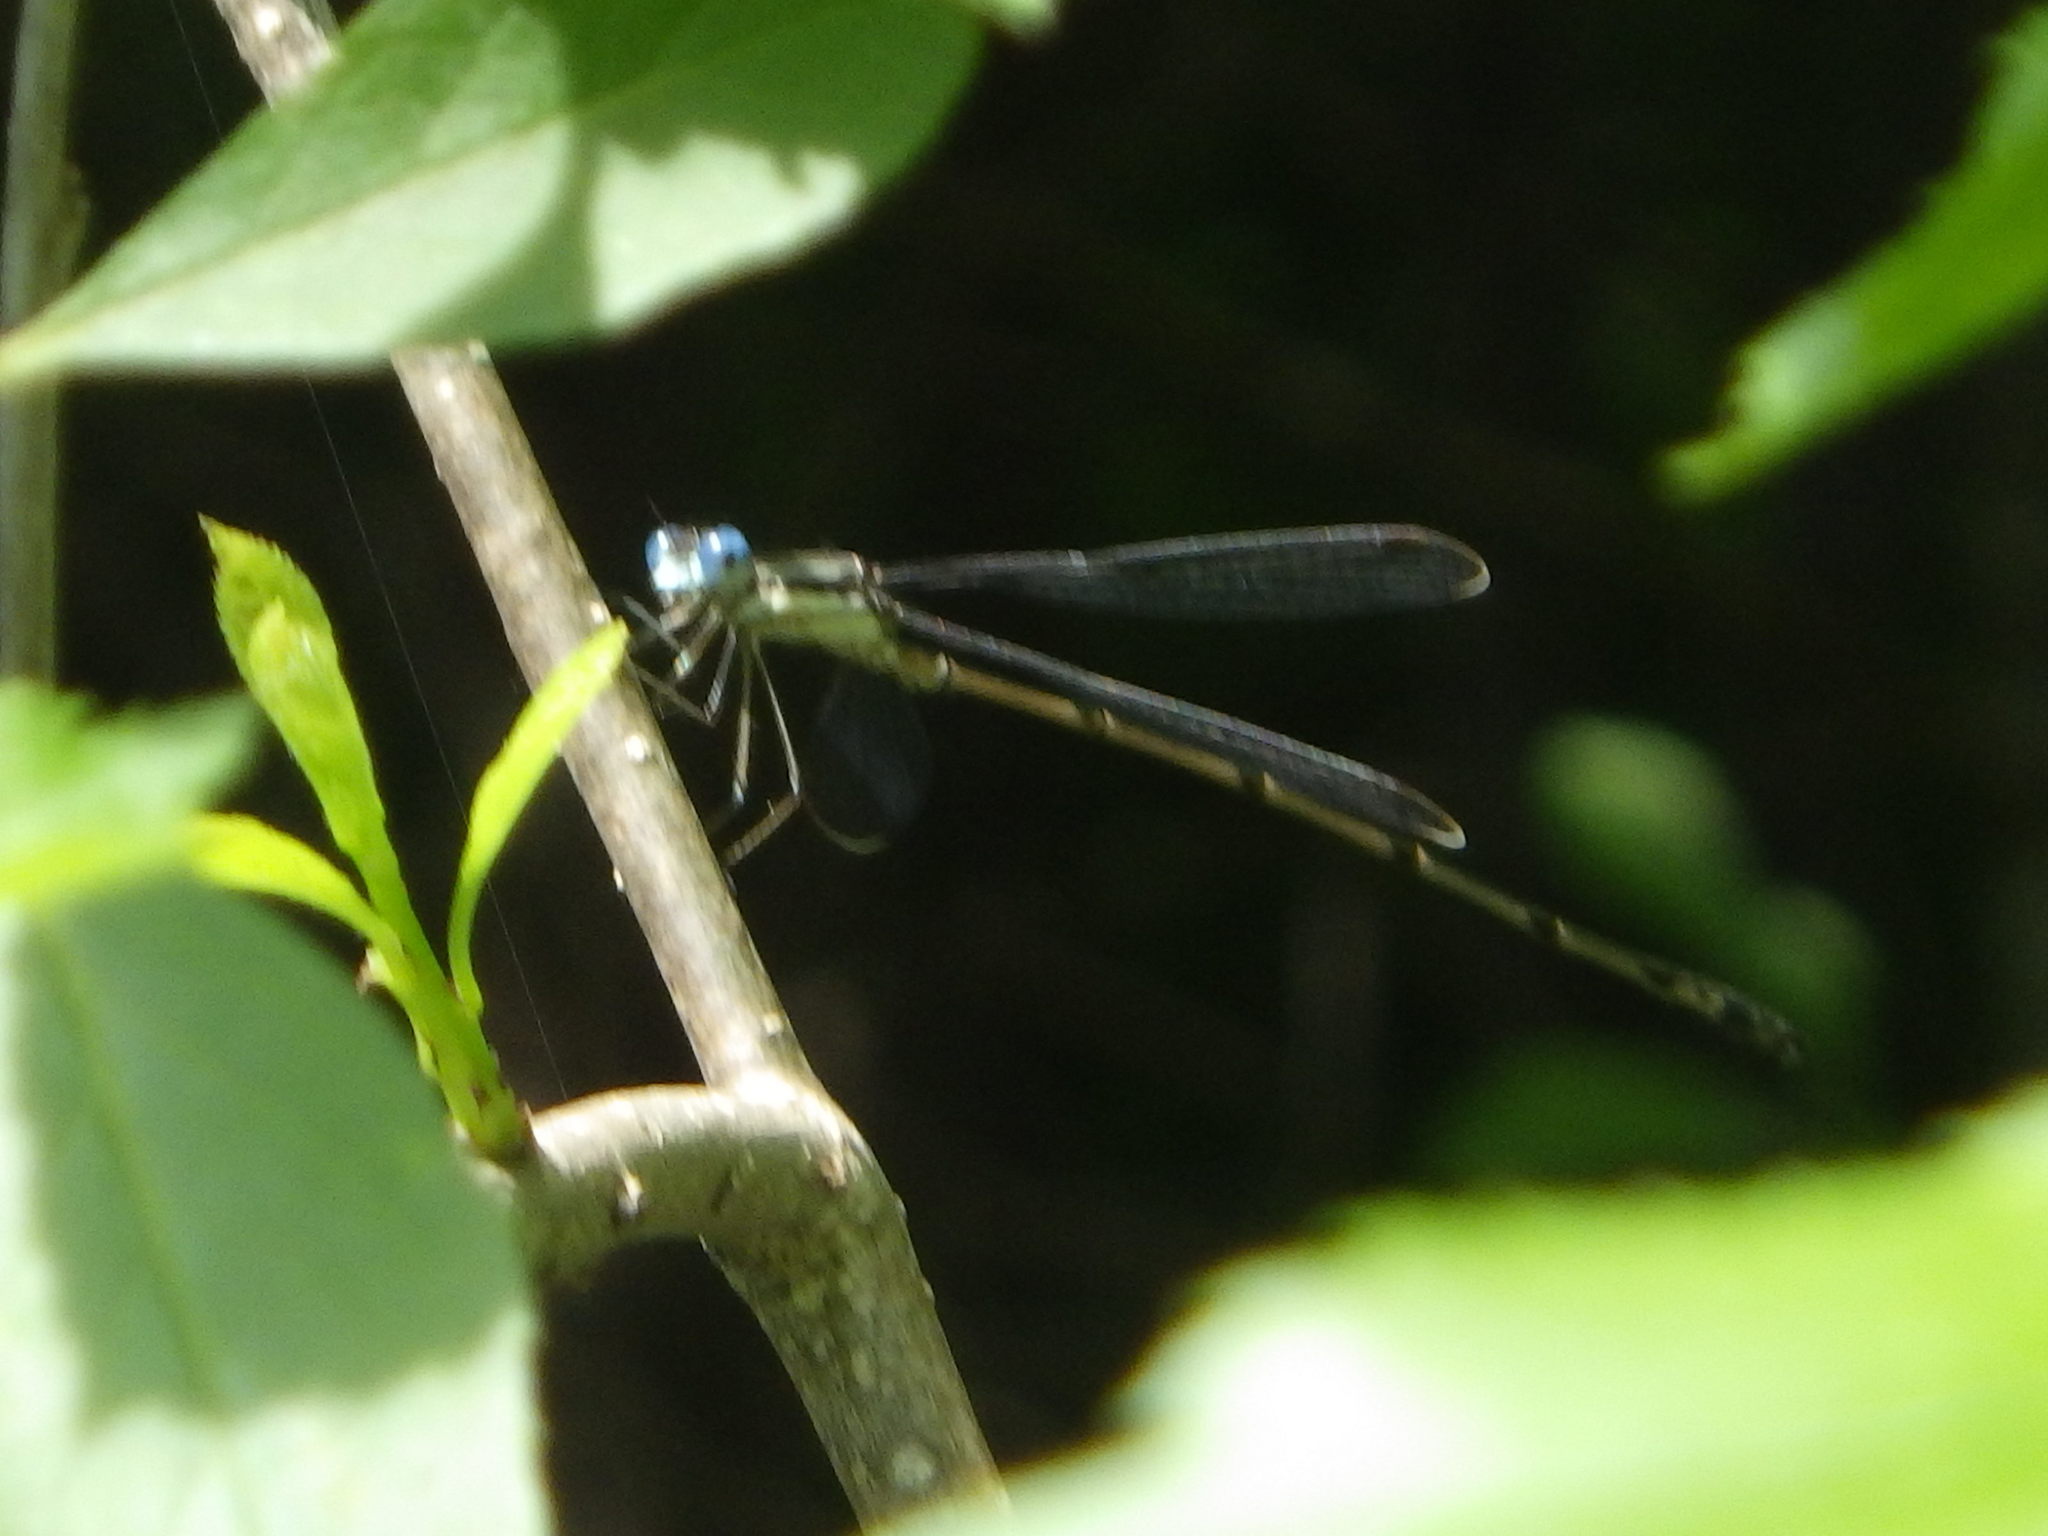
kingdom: Animalia
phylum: Arthropoda
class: Insecta
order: Odonata
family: Lestidae
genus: Lestes
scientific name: Lestes rectangularis
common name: Slender spreadwing
